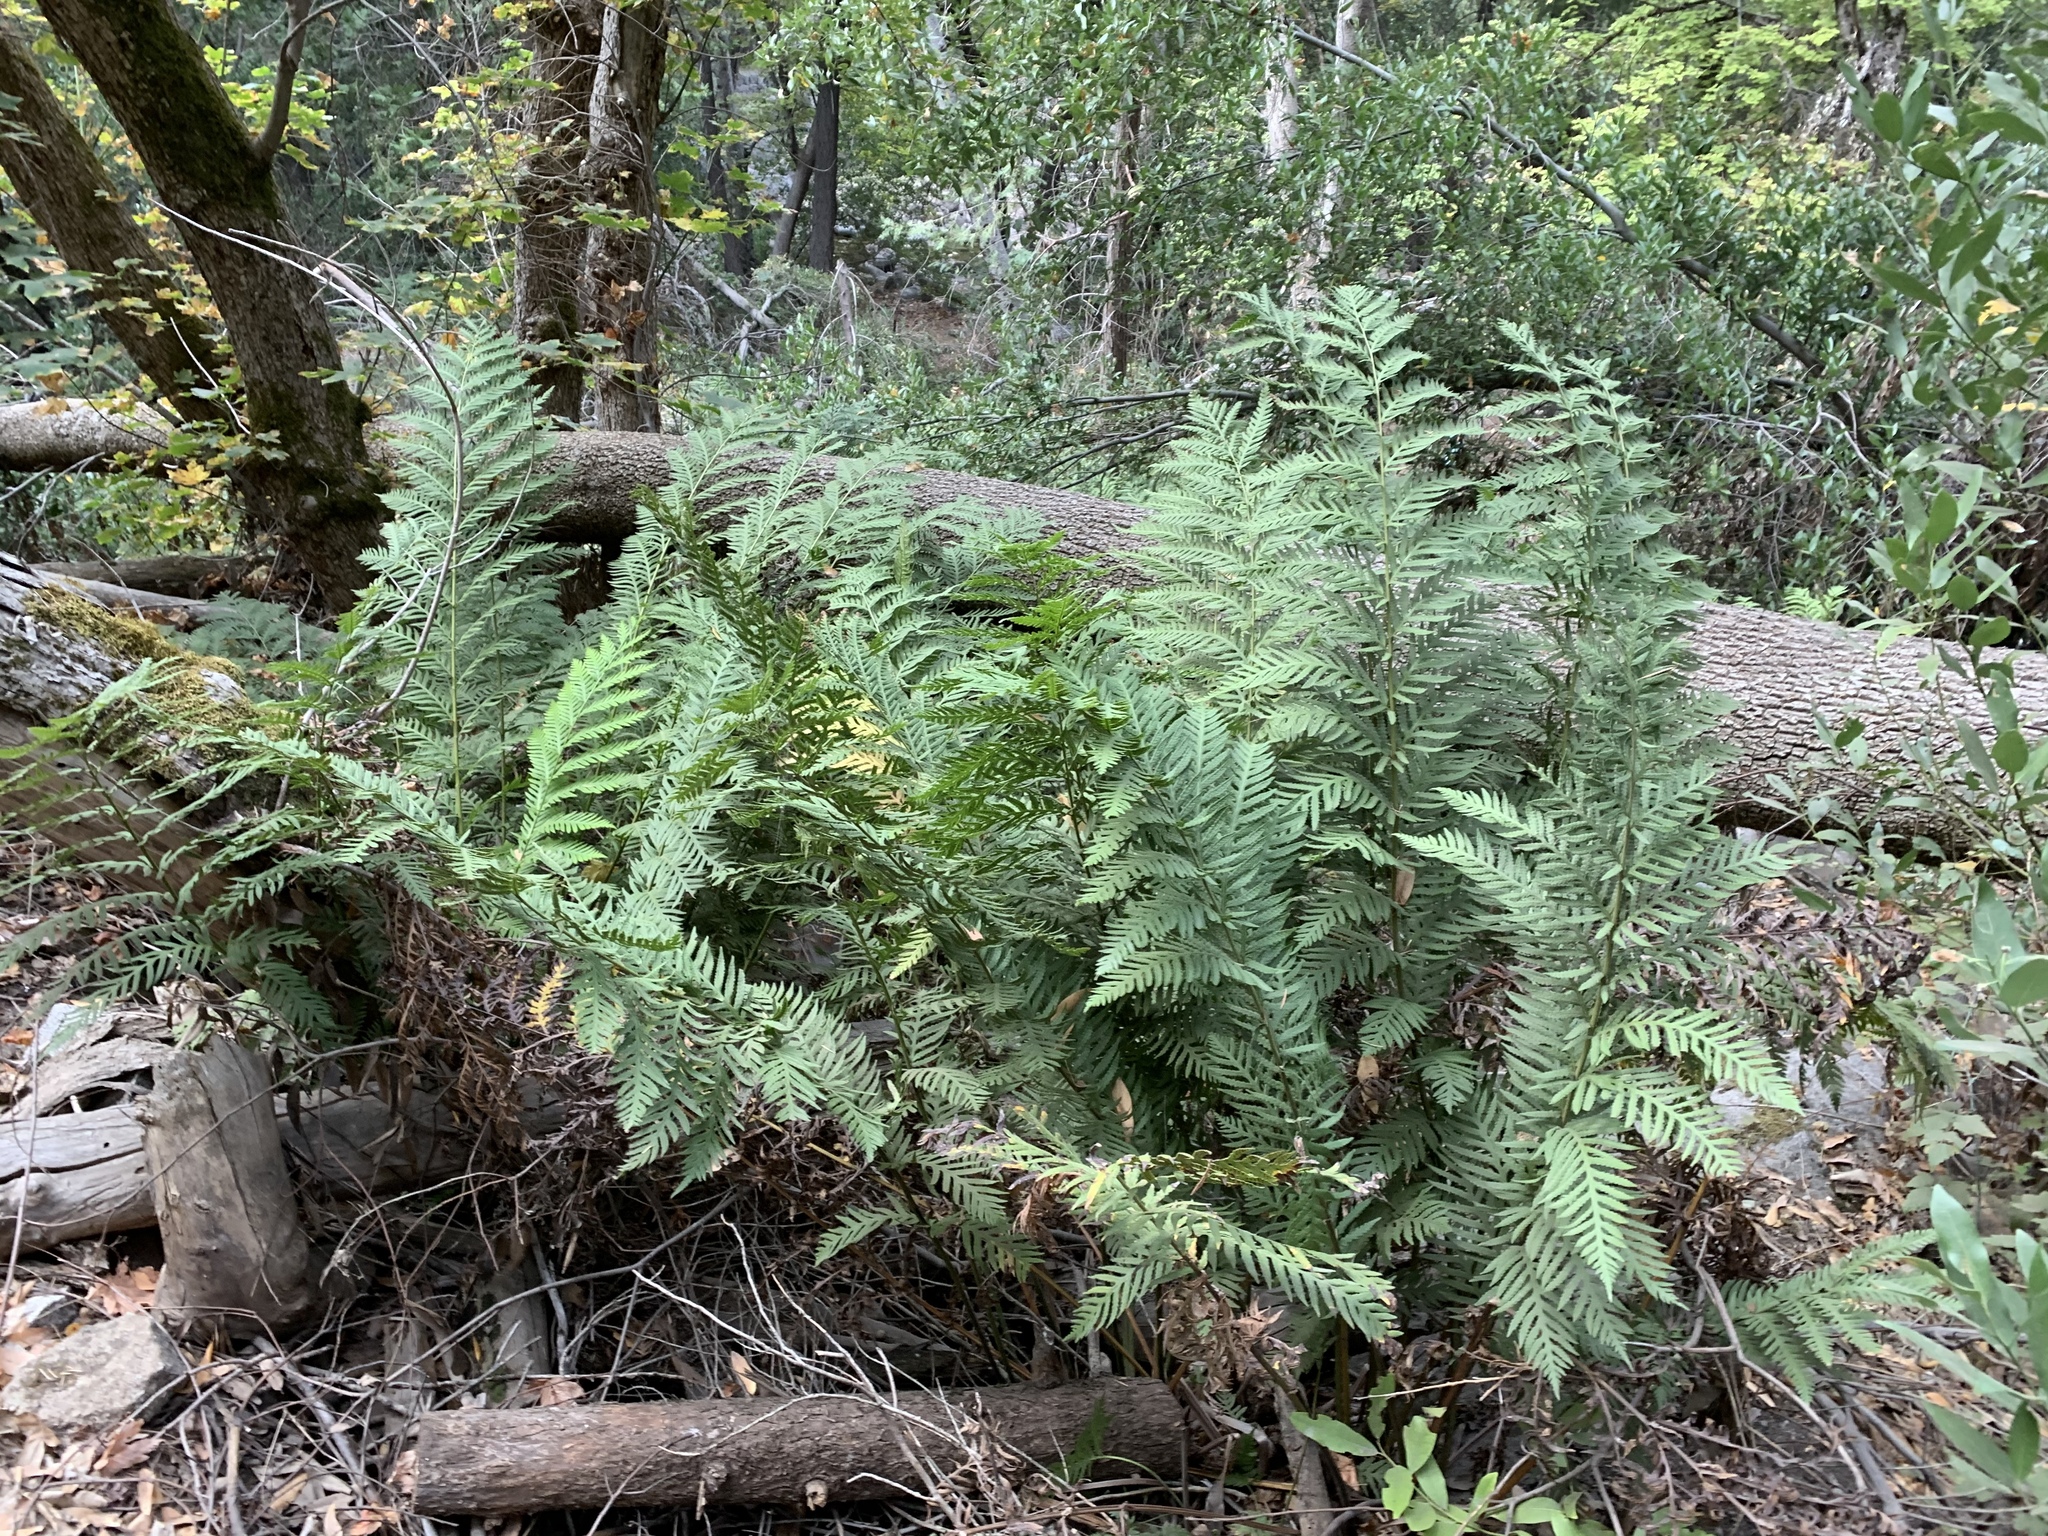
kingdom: Plantae
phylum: Tracheophyta
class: Polypodiopsida
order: Polypodiales
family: Blechnaceae
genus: Woodwardia
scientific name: Woodwardia fimbriata
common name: Giant chain fern
